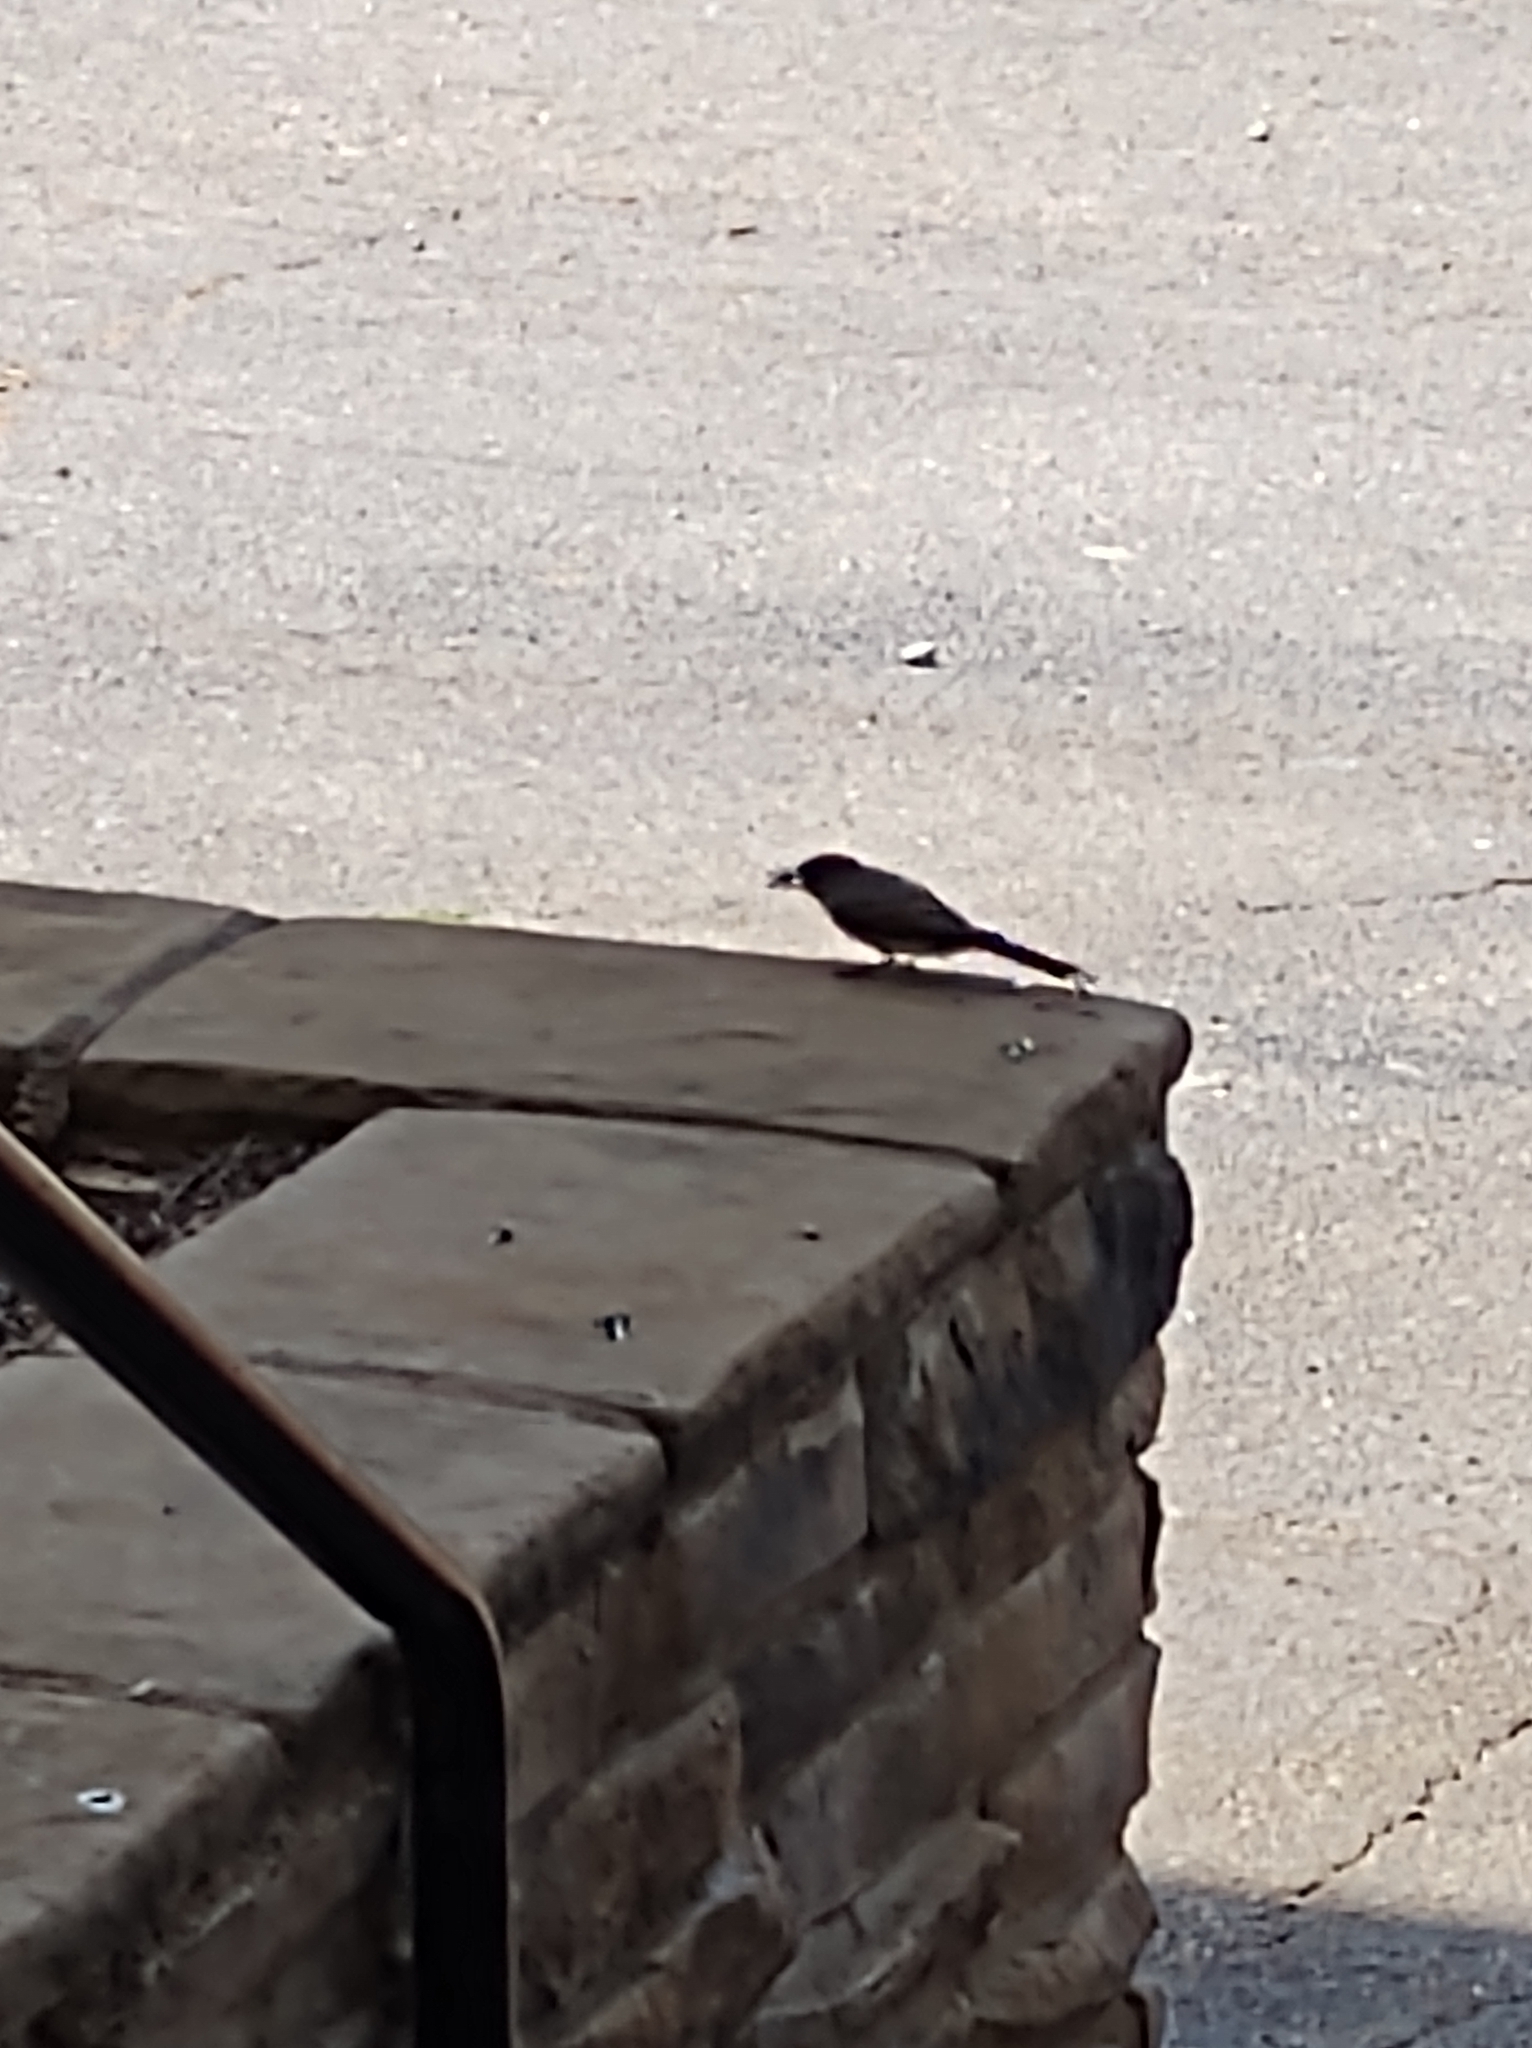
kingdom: Animalia
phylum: Chordata
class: Aves
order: Passeriformes
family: Tyrannidae
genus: Sayornis
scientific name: Sayornis phoebe
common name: Eastern phoebe
